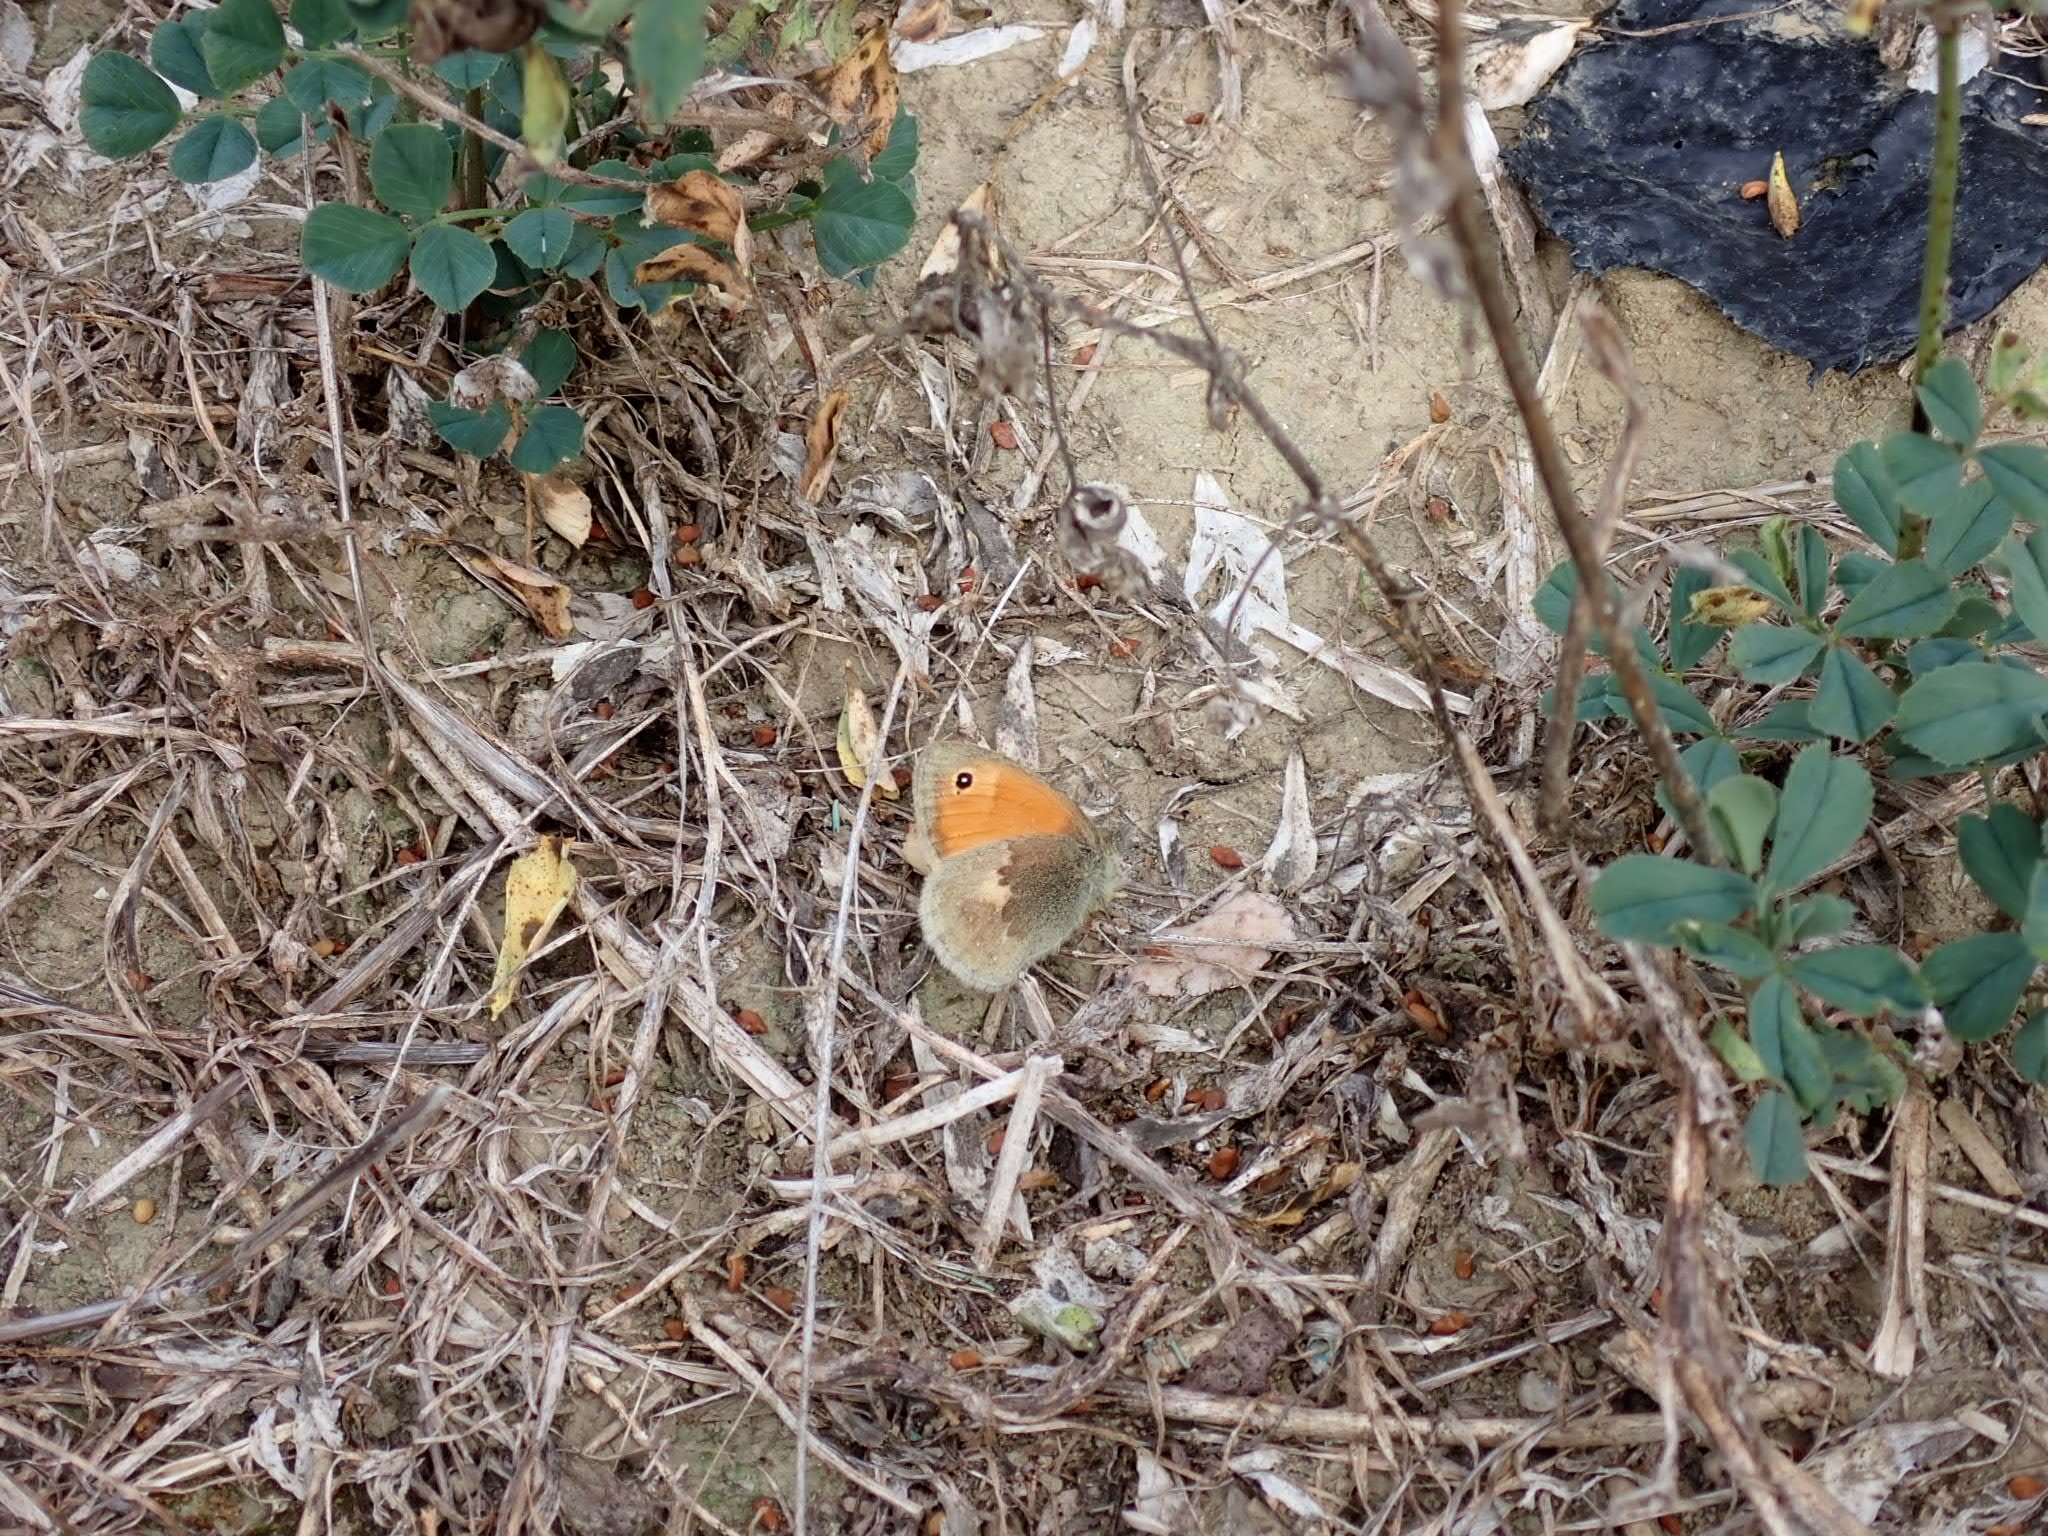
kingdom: Animalia
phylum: Arthropoda
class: Insecta
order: Lepidoptera
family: Nymphalidae
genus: Coenonympha
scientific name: Coenonympha pamphilus
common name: Small heath
